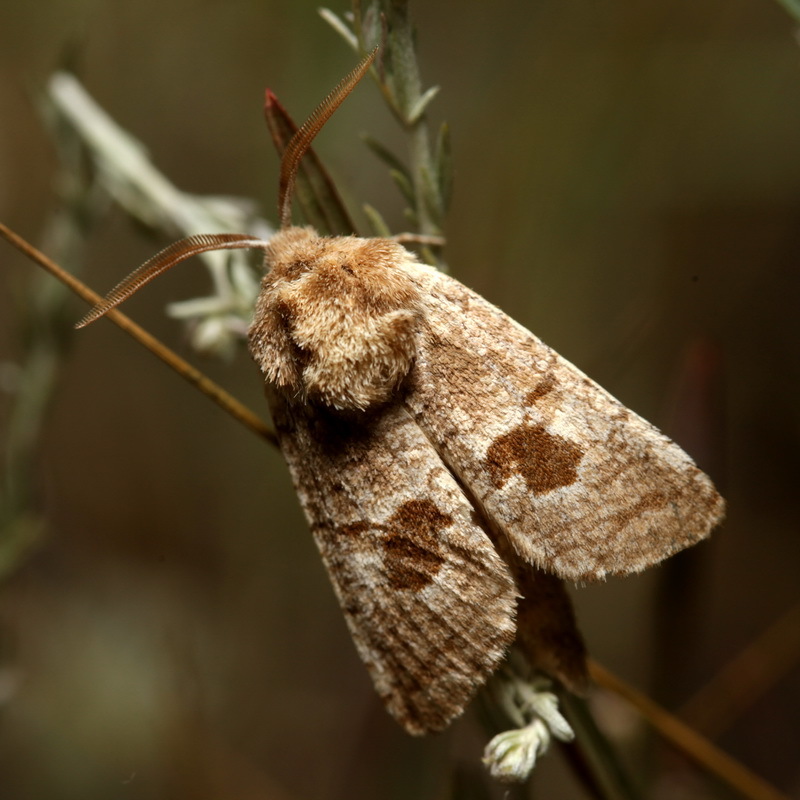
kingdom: Animalia
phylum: Arthropoda
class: Insecta
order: Lepidoptera
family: Cossidae
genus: Paracossulus
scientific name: Paracossulus thrips
